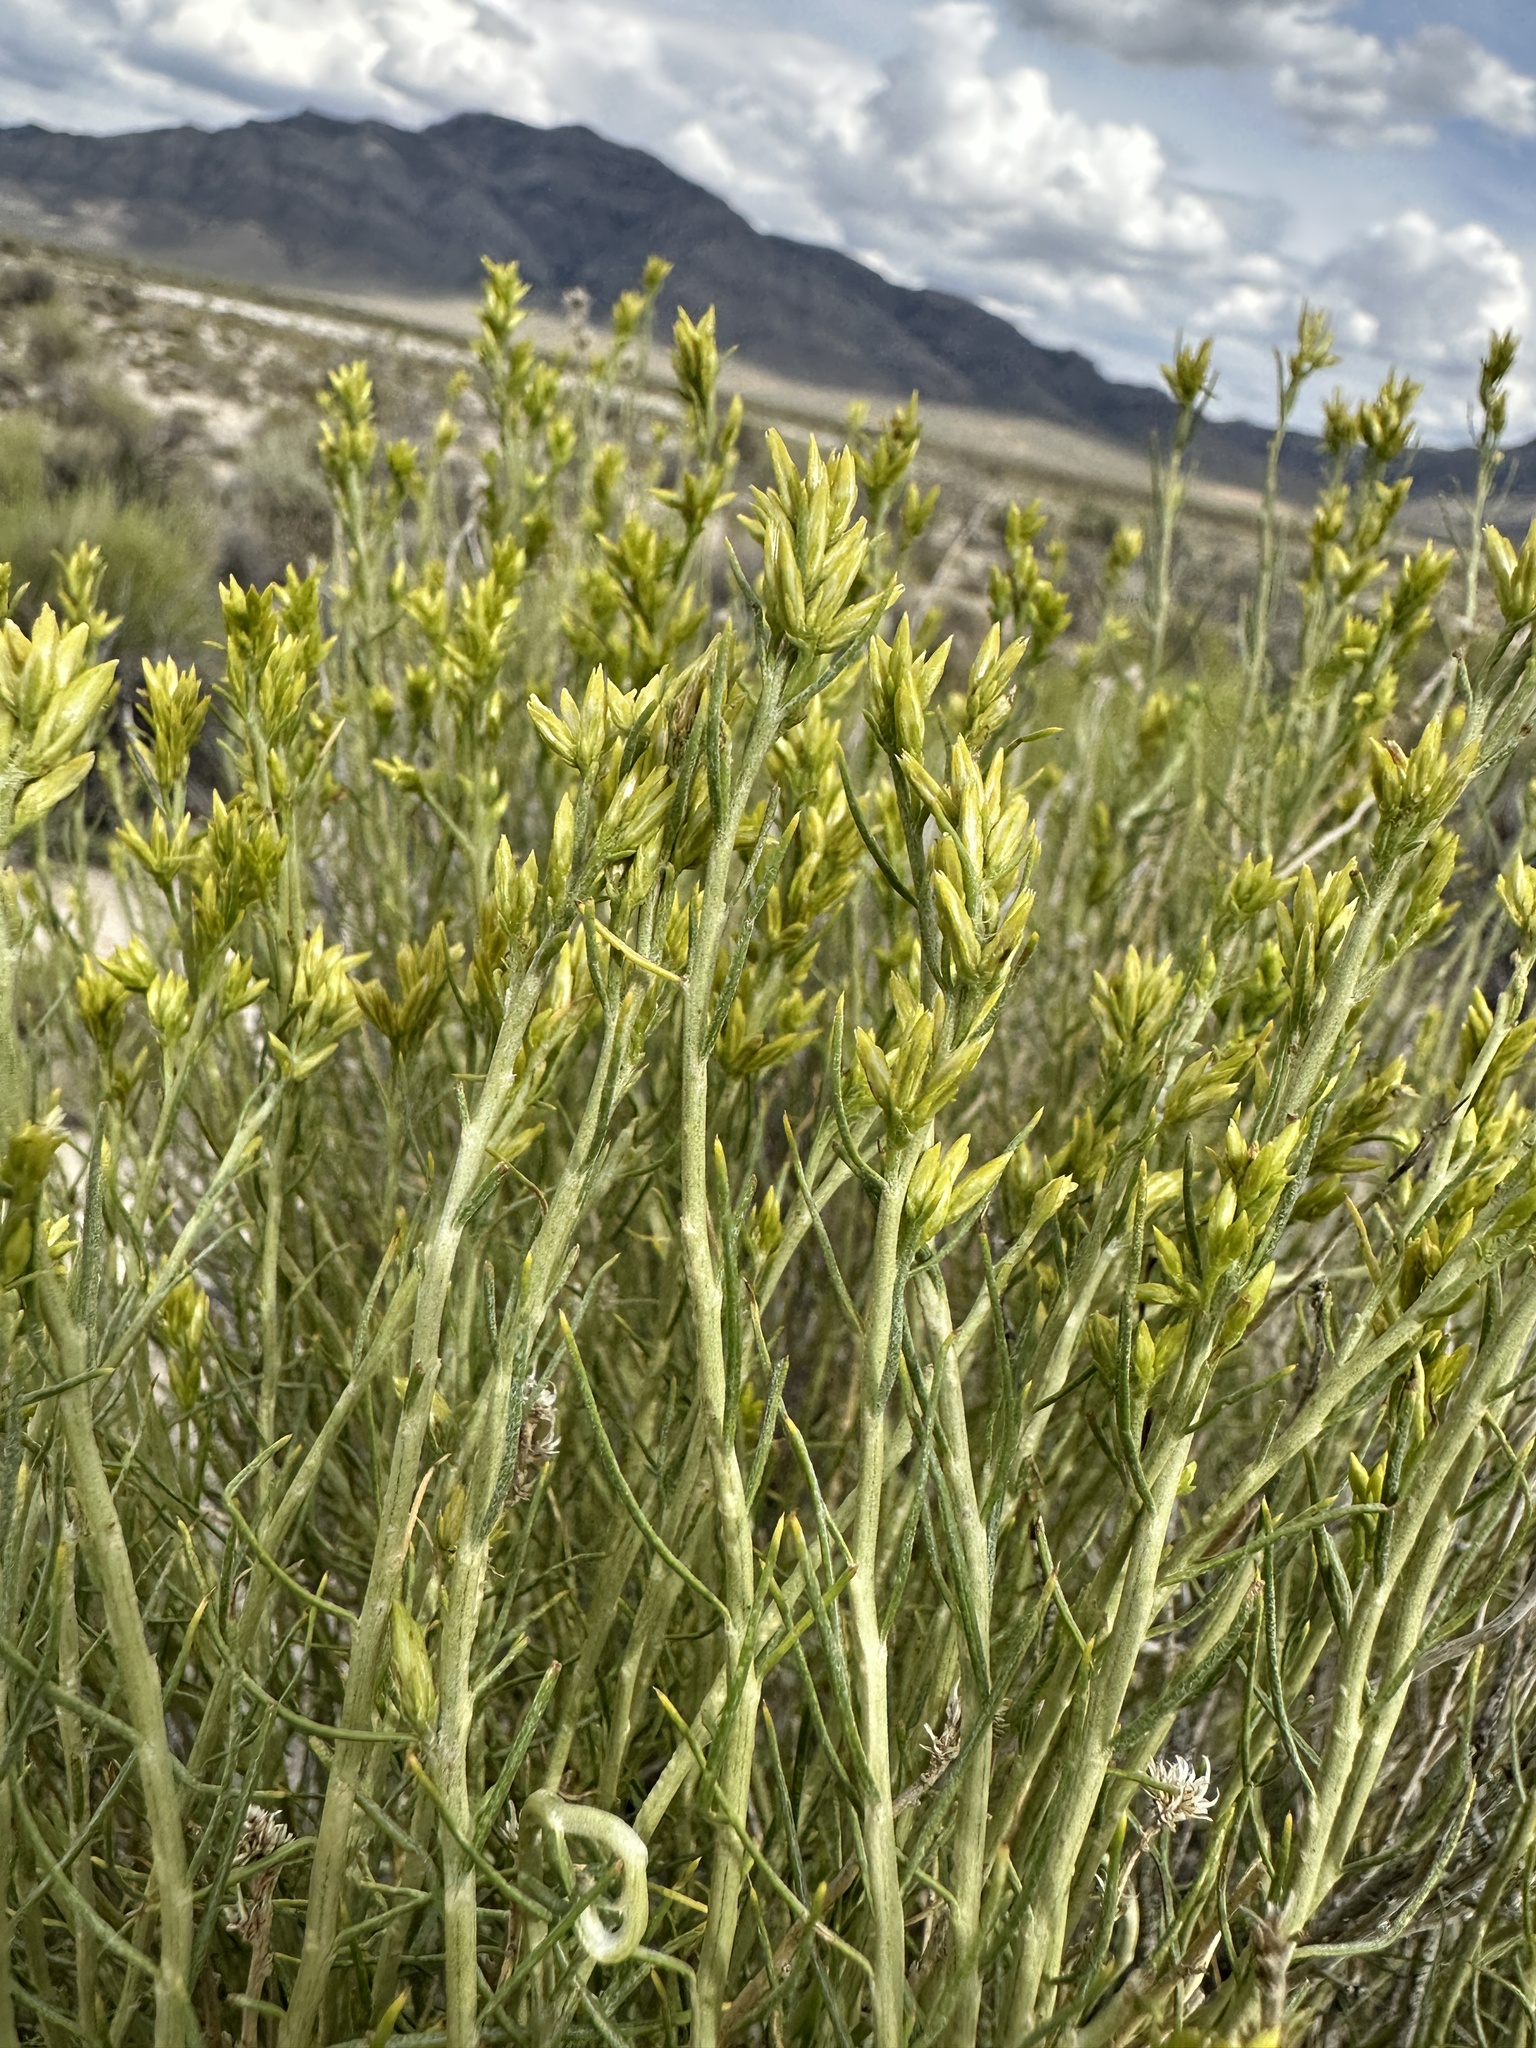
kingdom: Plantae
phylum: Tracheophyta
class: Magnoliopsida
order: Asterales
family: Asteraceae
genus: Ericameria
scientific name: Ericameria nauseosa
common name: Rubber rabbitbrush
